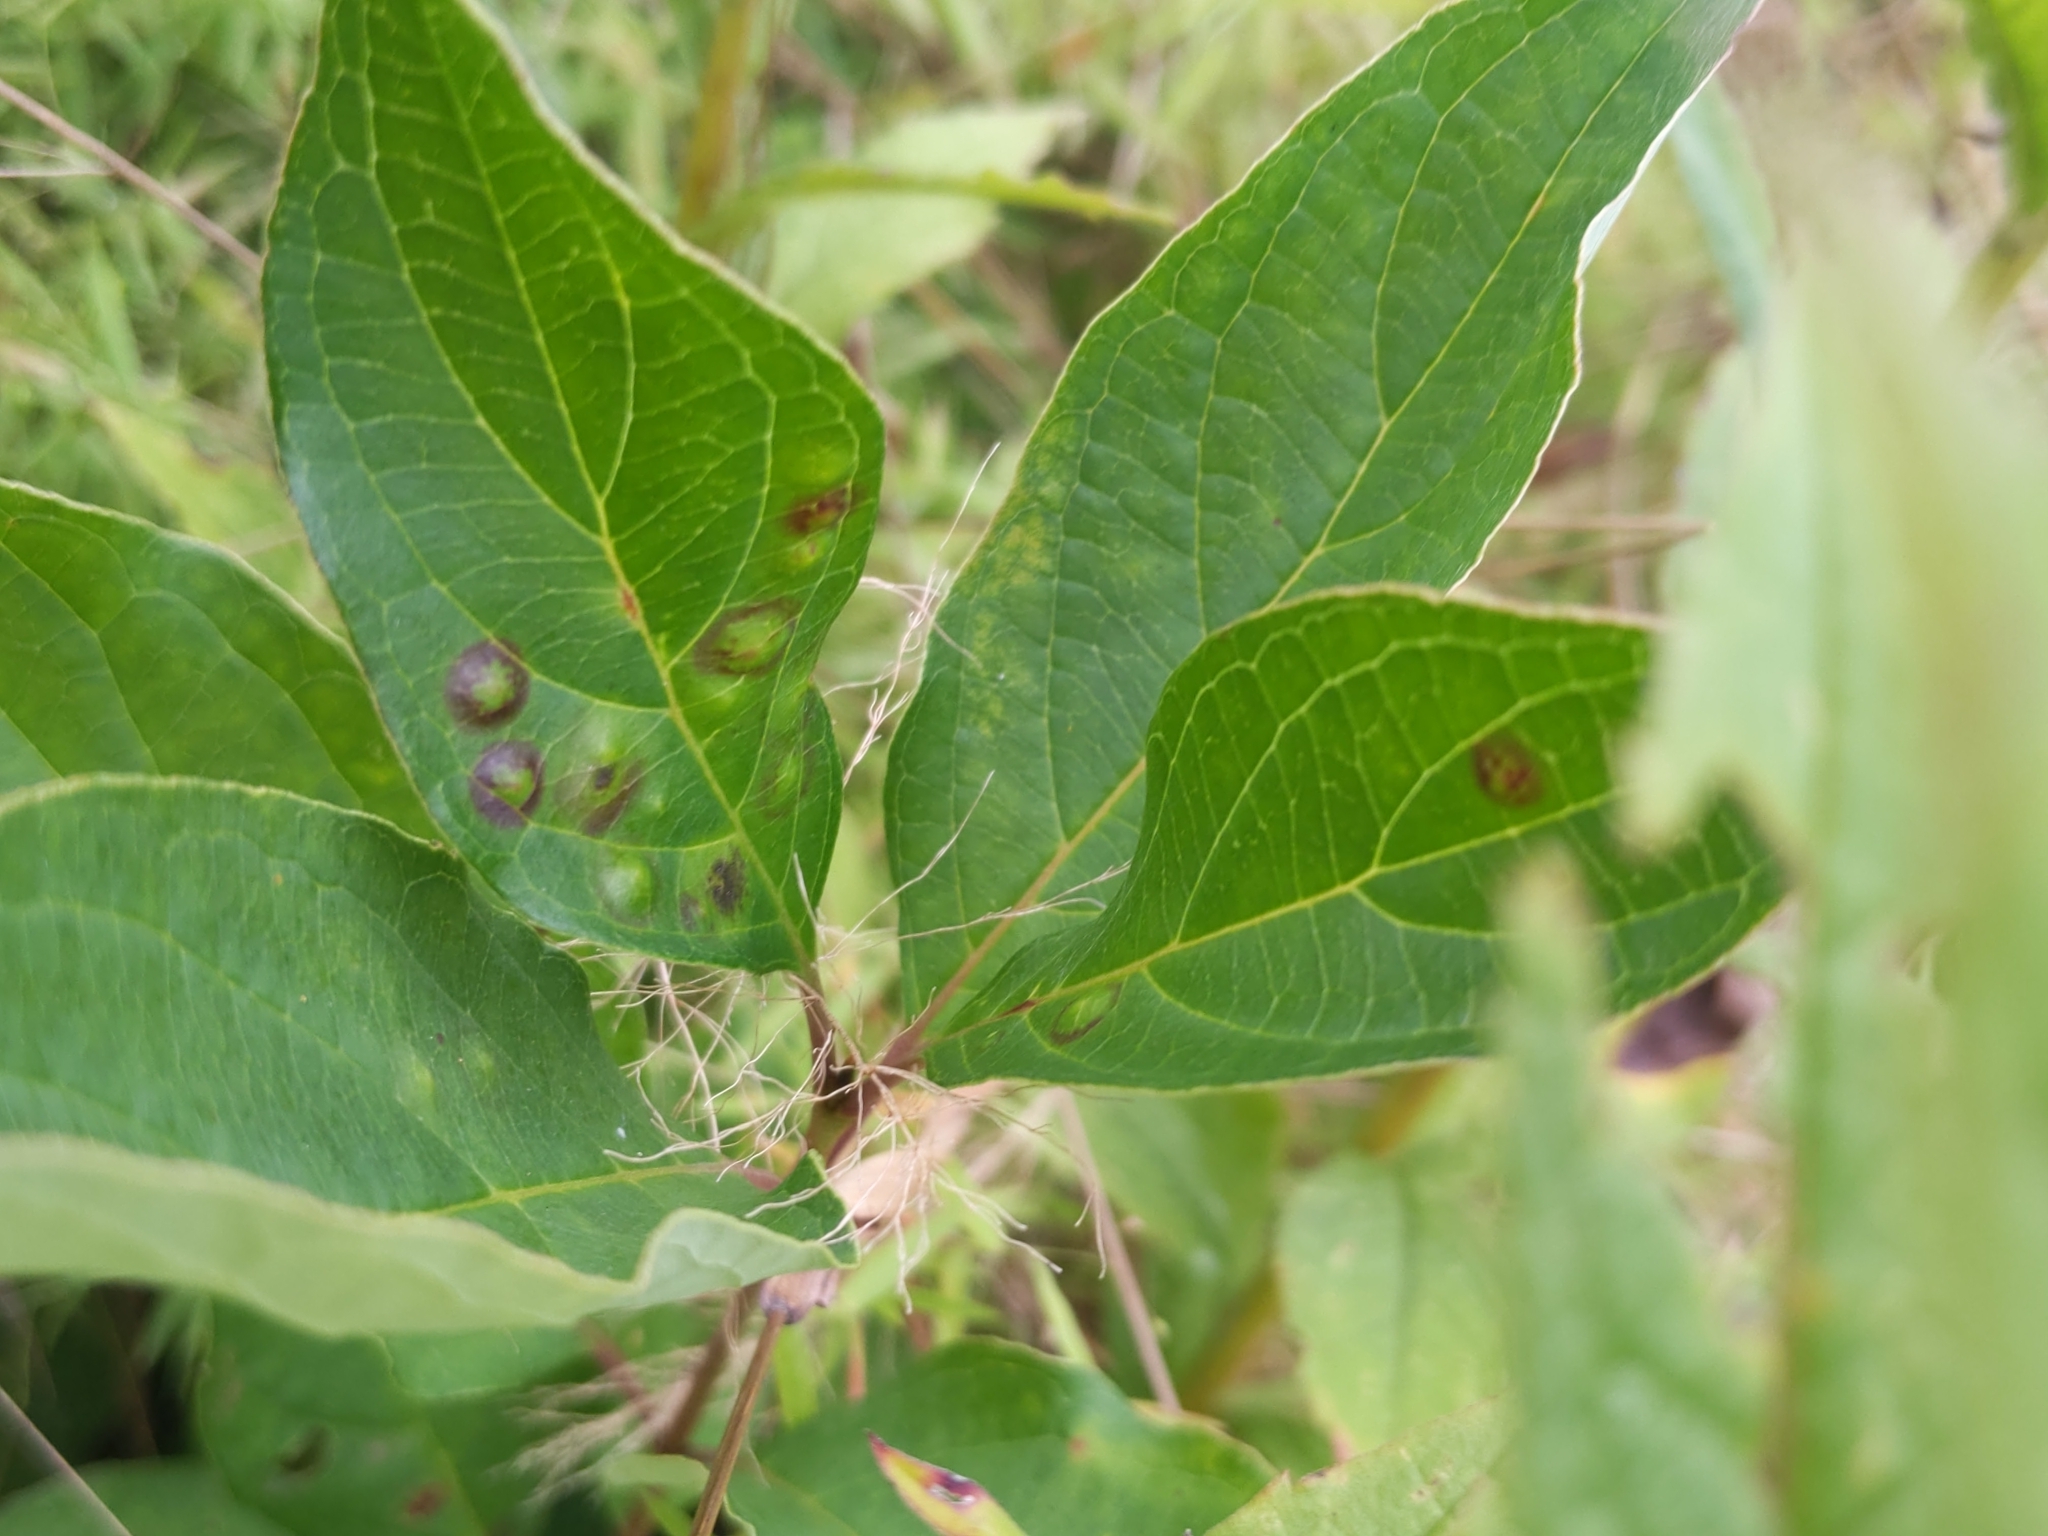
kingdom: Animalia
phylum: Arthropoda
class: Insecta
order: Diptera
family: Cecidomyiidae
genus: Parallelodiplosis
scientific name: Parallelodiplosis subtruncata
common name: Dogwood eyespot gall midge
